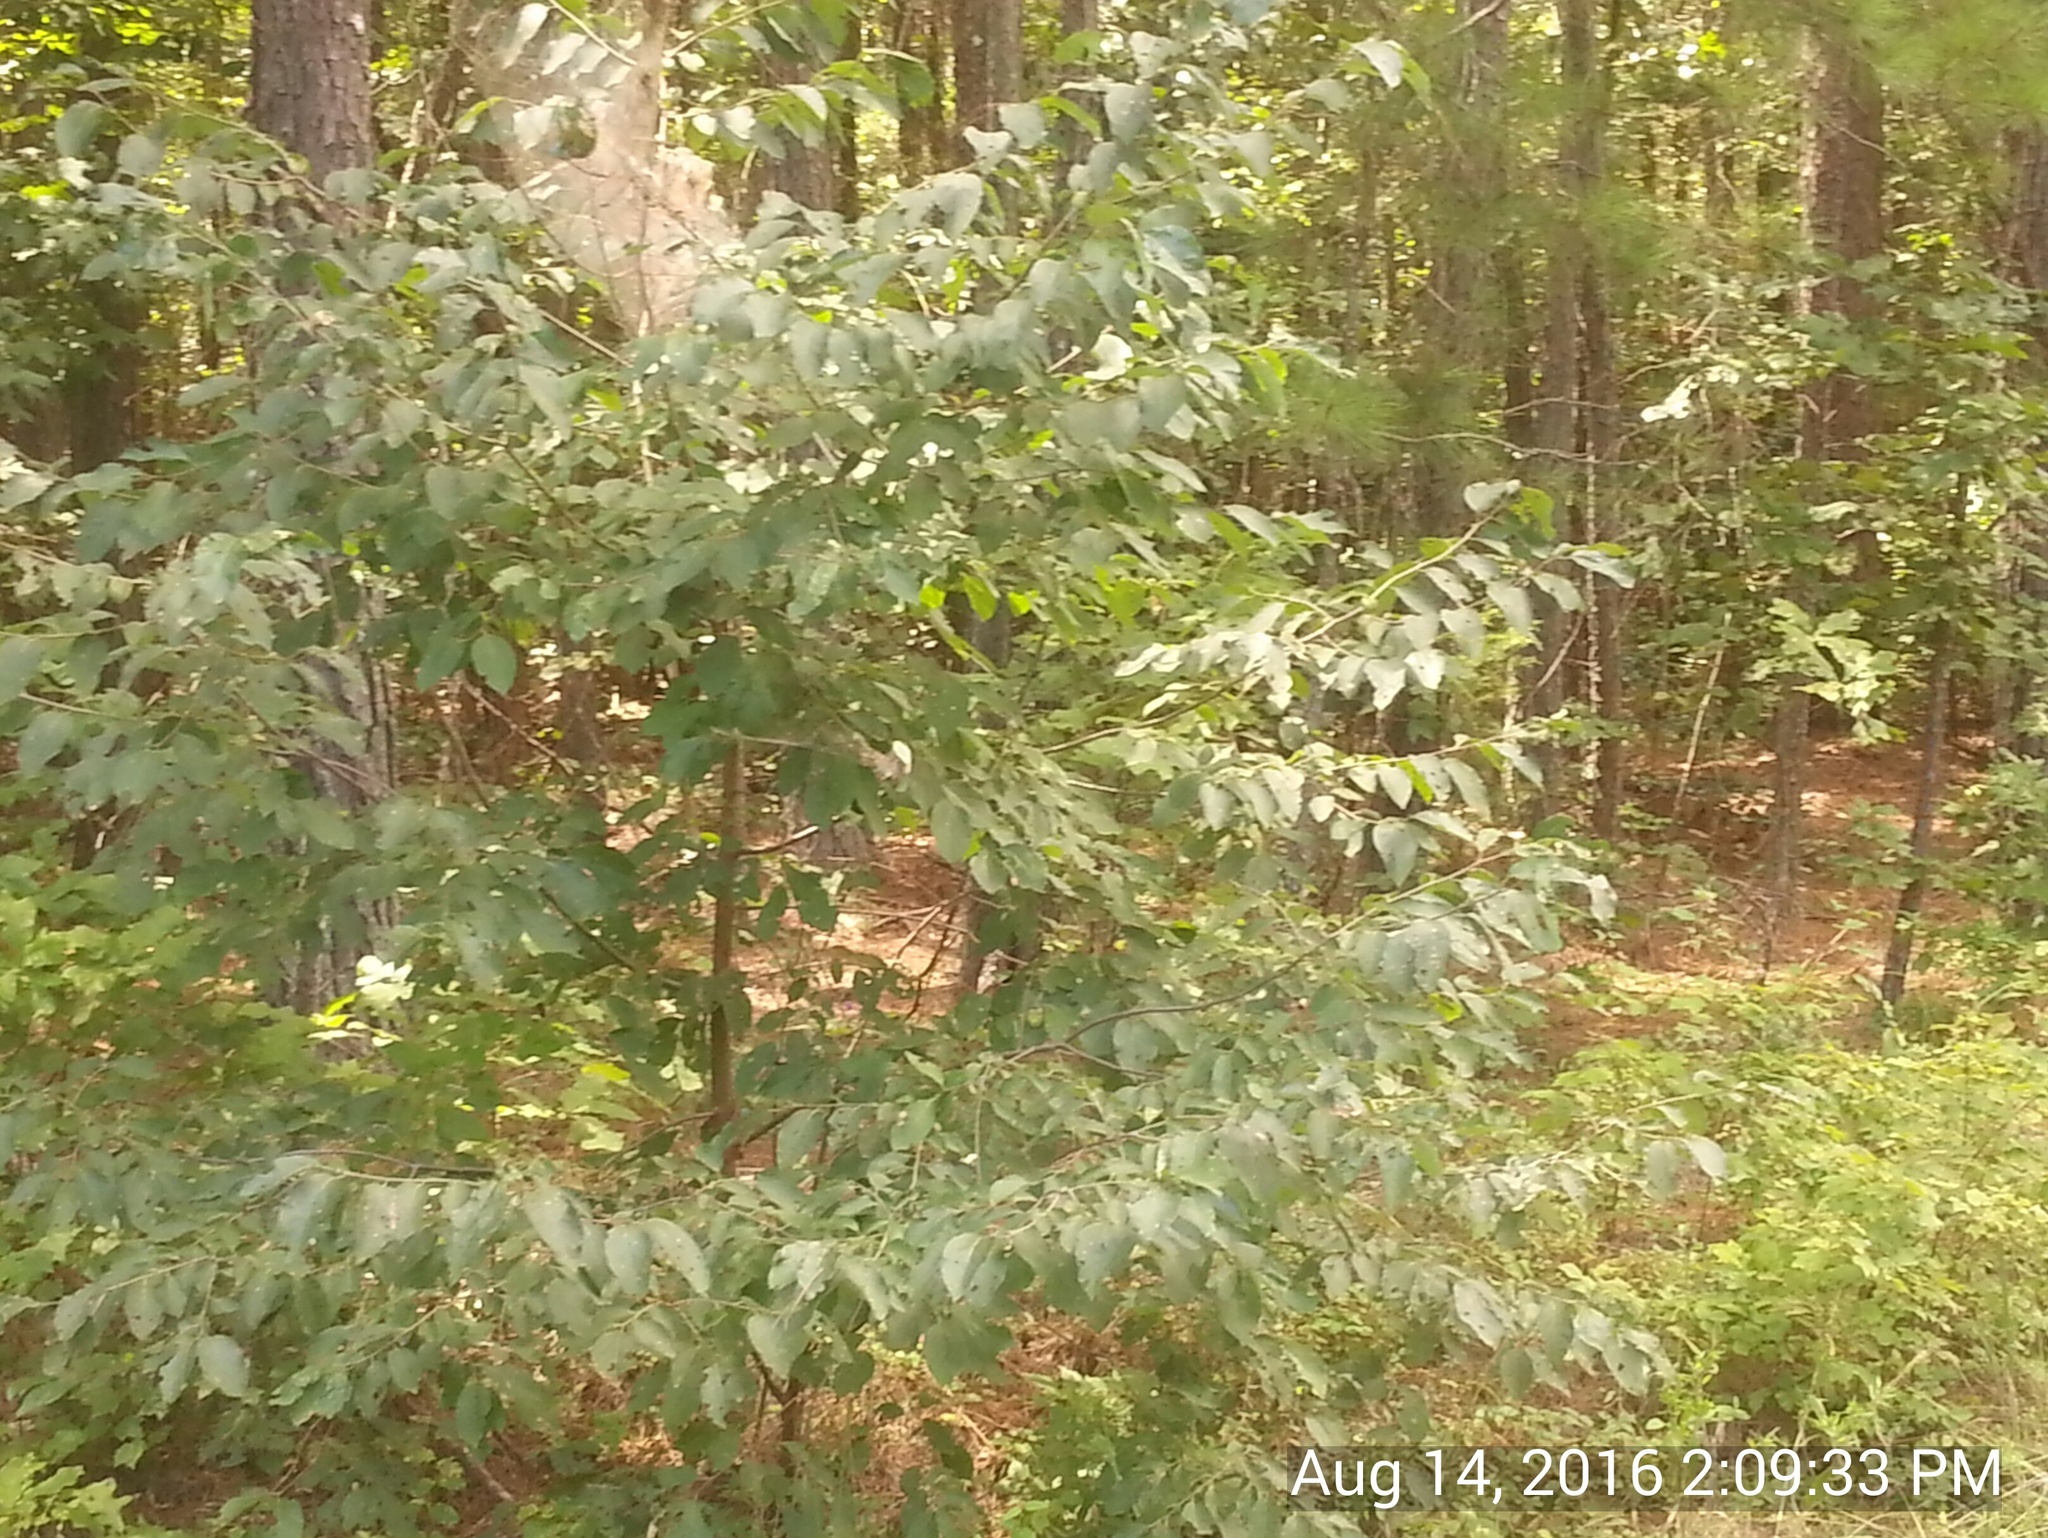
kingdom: Plantae
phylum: Tracheophyta
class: Magnoliopsida
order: Ericales
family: Ebenaceae
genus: Diospyros
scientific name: Diospyros virginiana
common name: Persimmon
